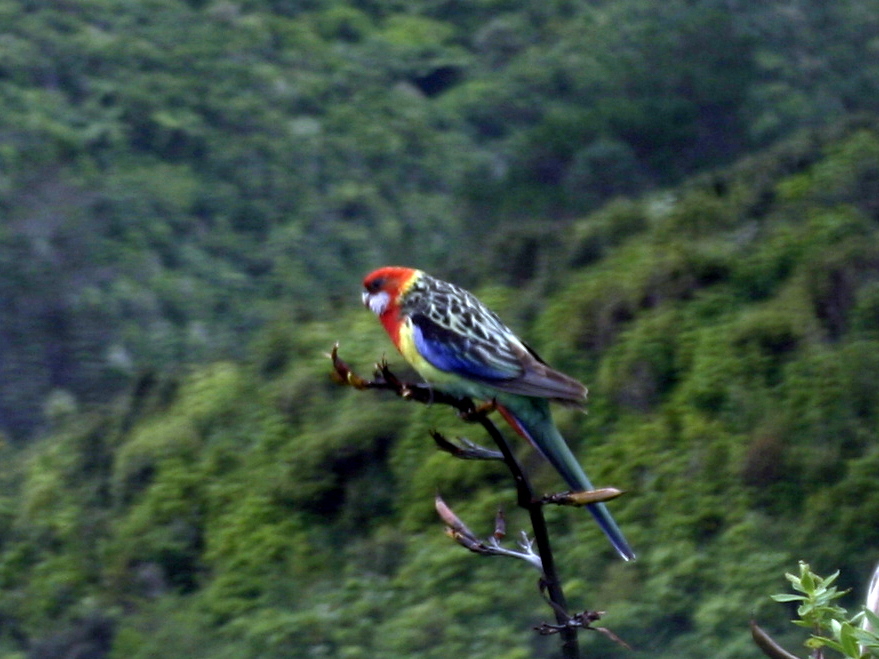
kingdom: Animalia
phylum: Chordata
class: Aves
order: Psittaciformes
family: Psittacidae
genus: Platycercus
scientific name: Platycercus eximius
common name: Eastern rosella
